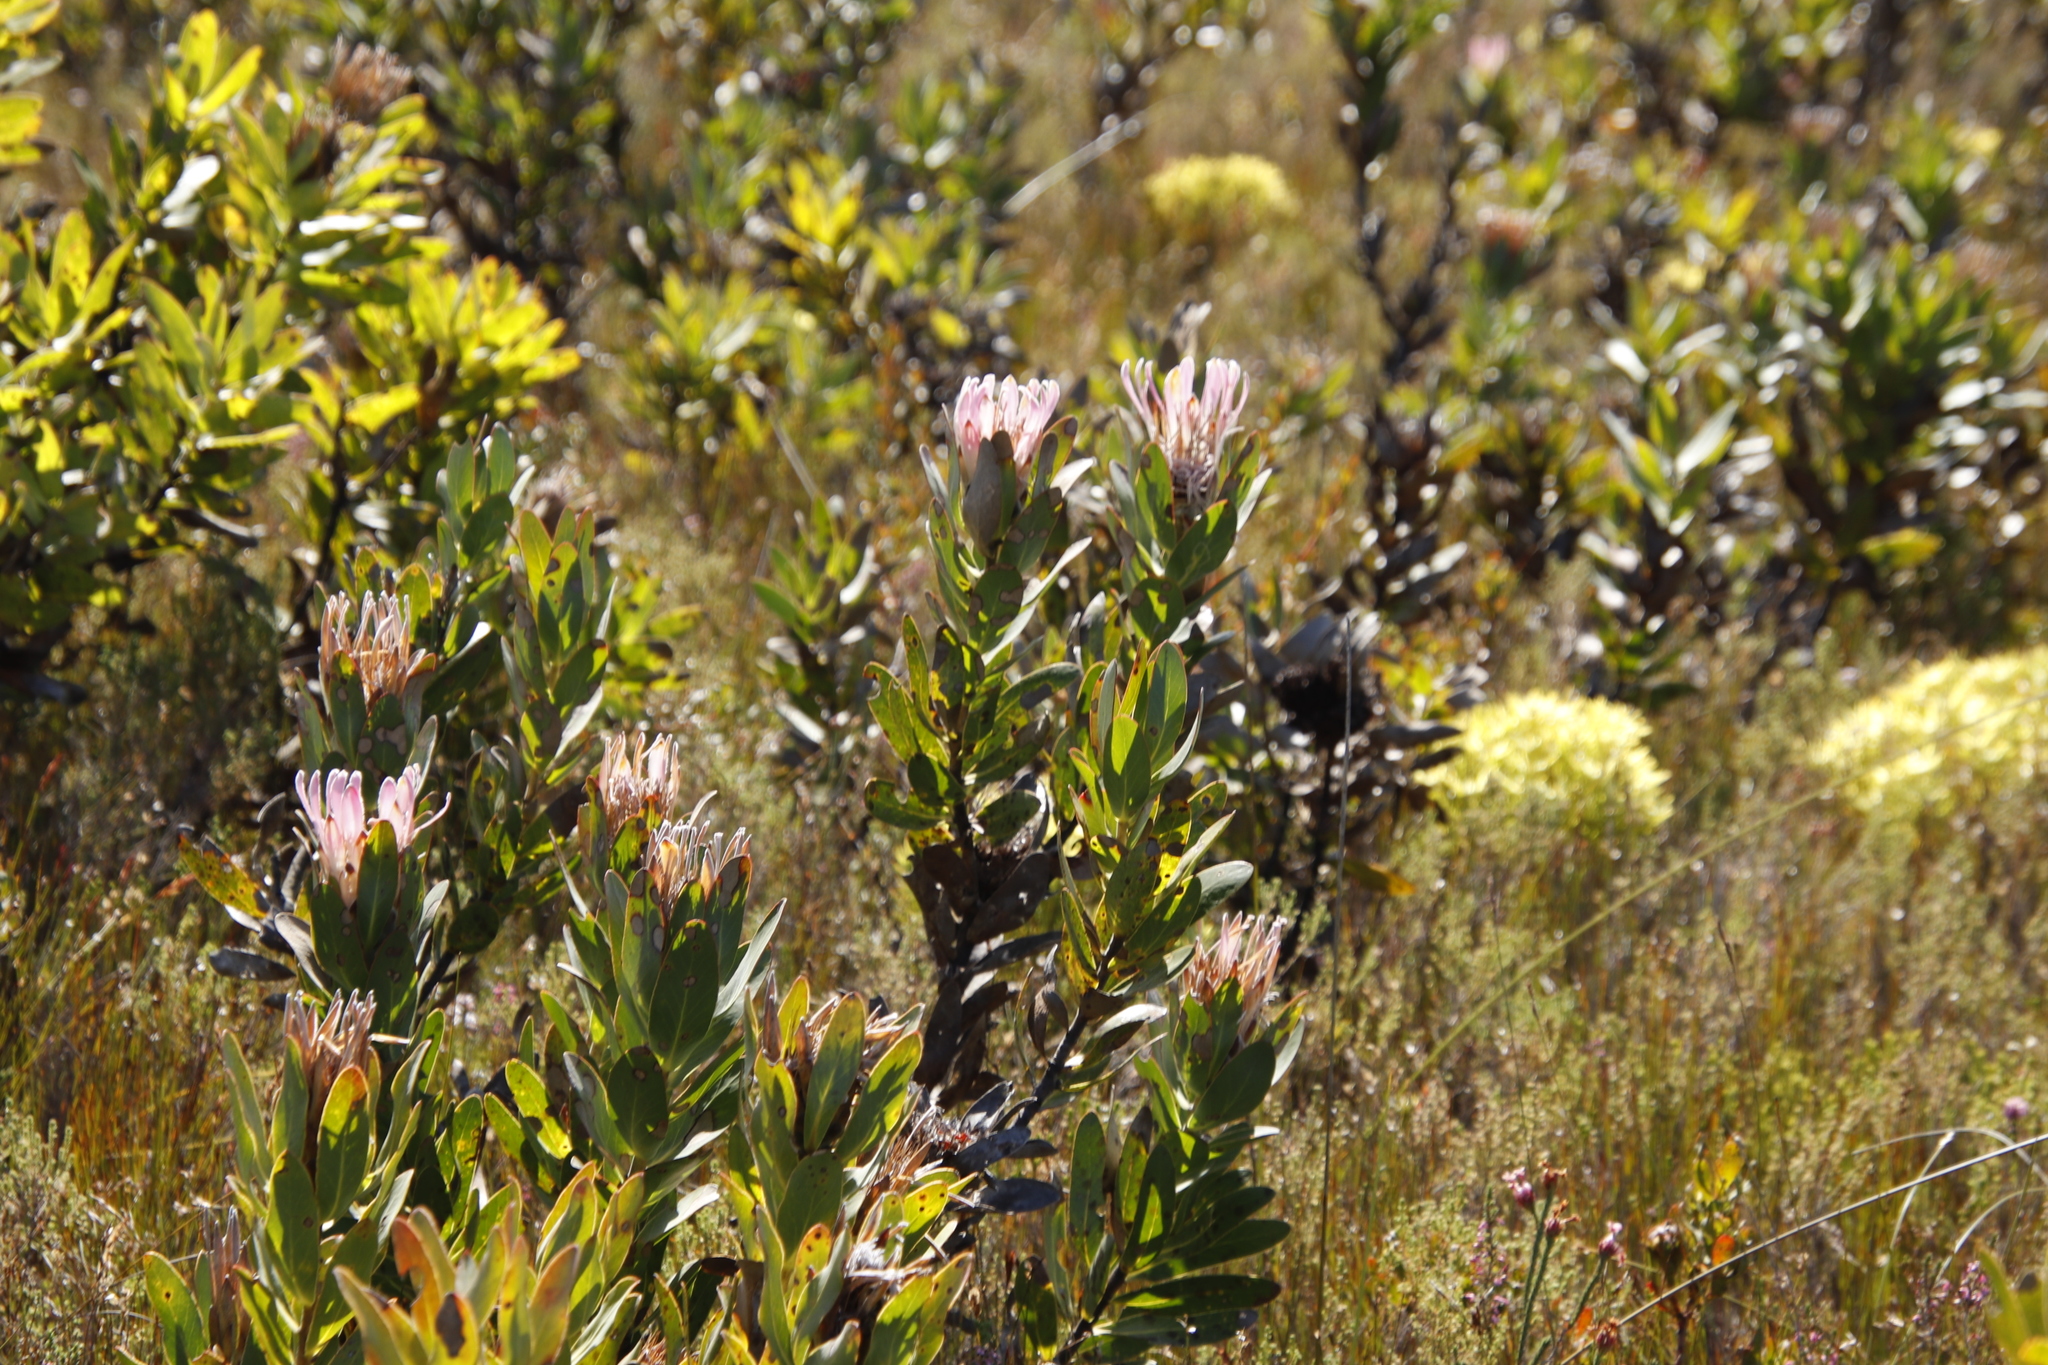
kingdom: Plantae
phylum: Tracheophyta
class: Magnoliopsida
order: Proteales
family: Proteaceae
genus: Protea
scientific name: Protea compacta
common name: Bot river protea
